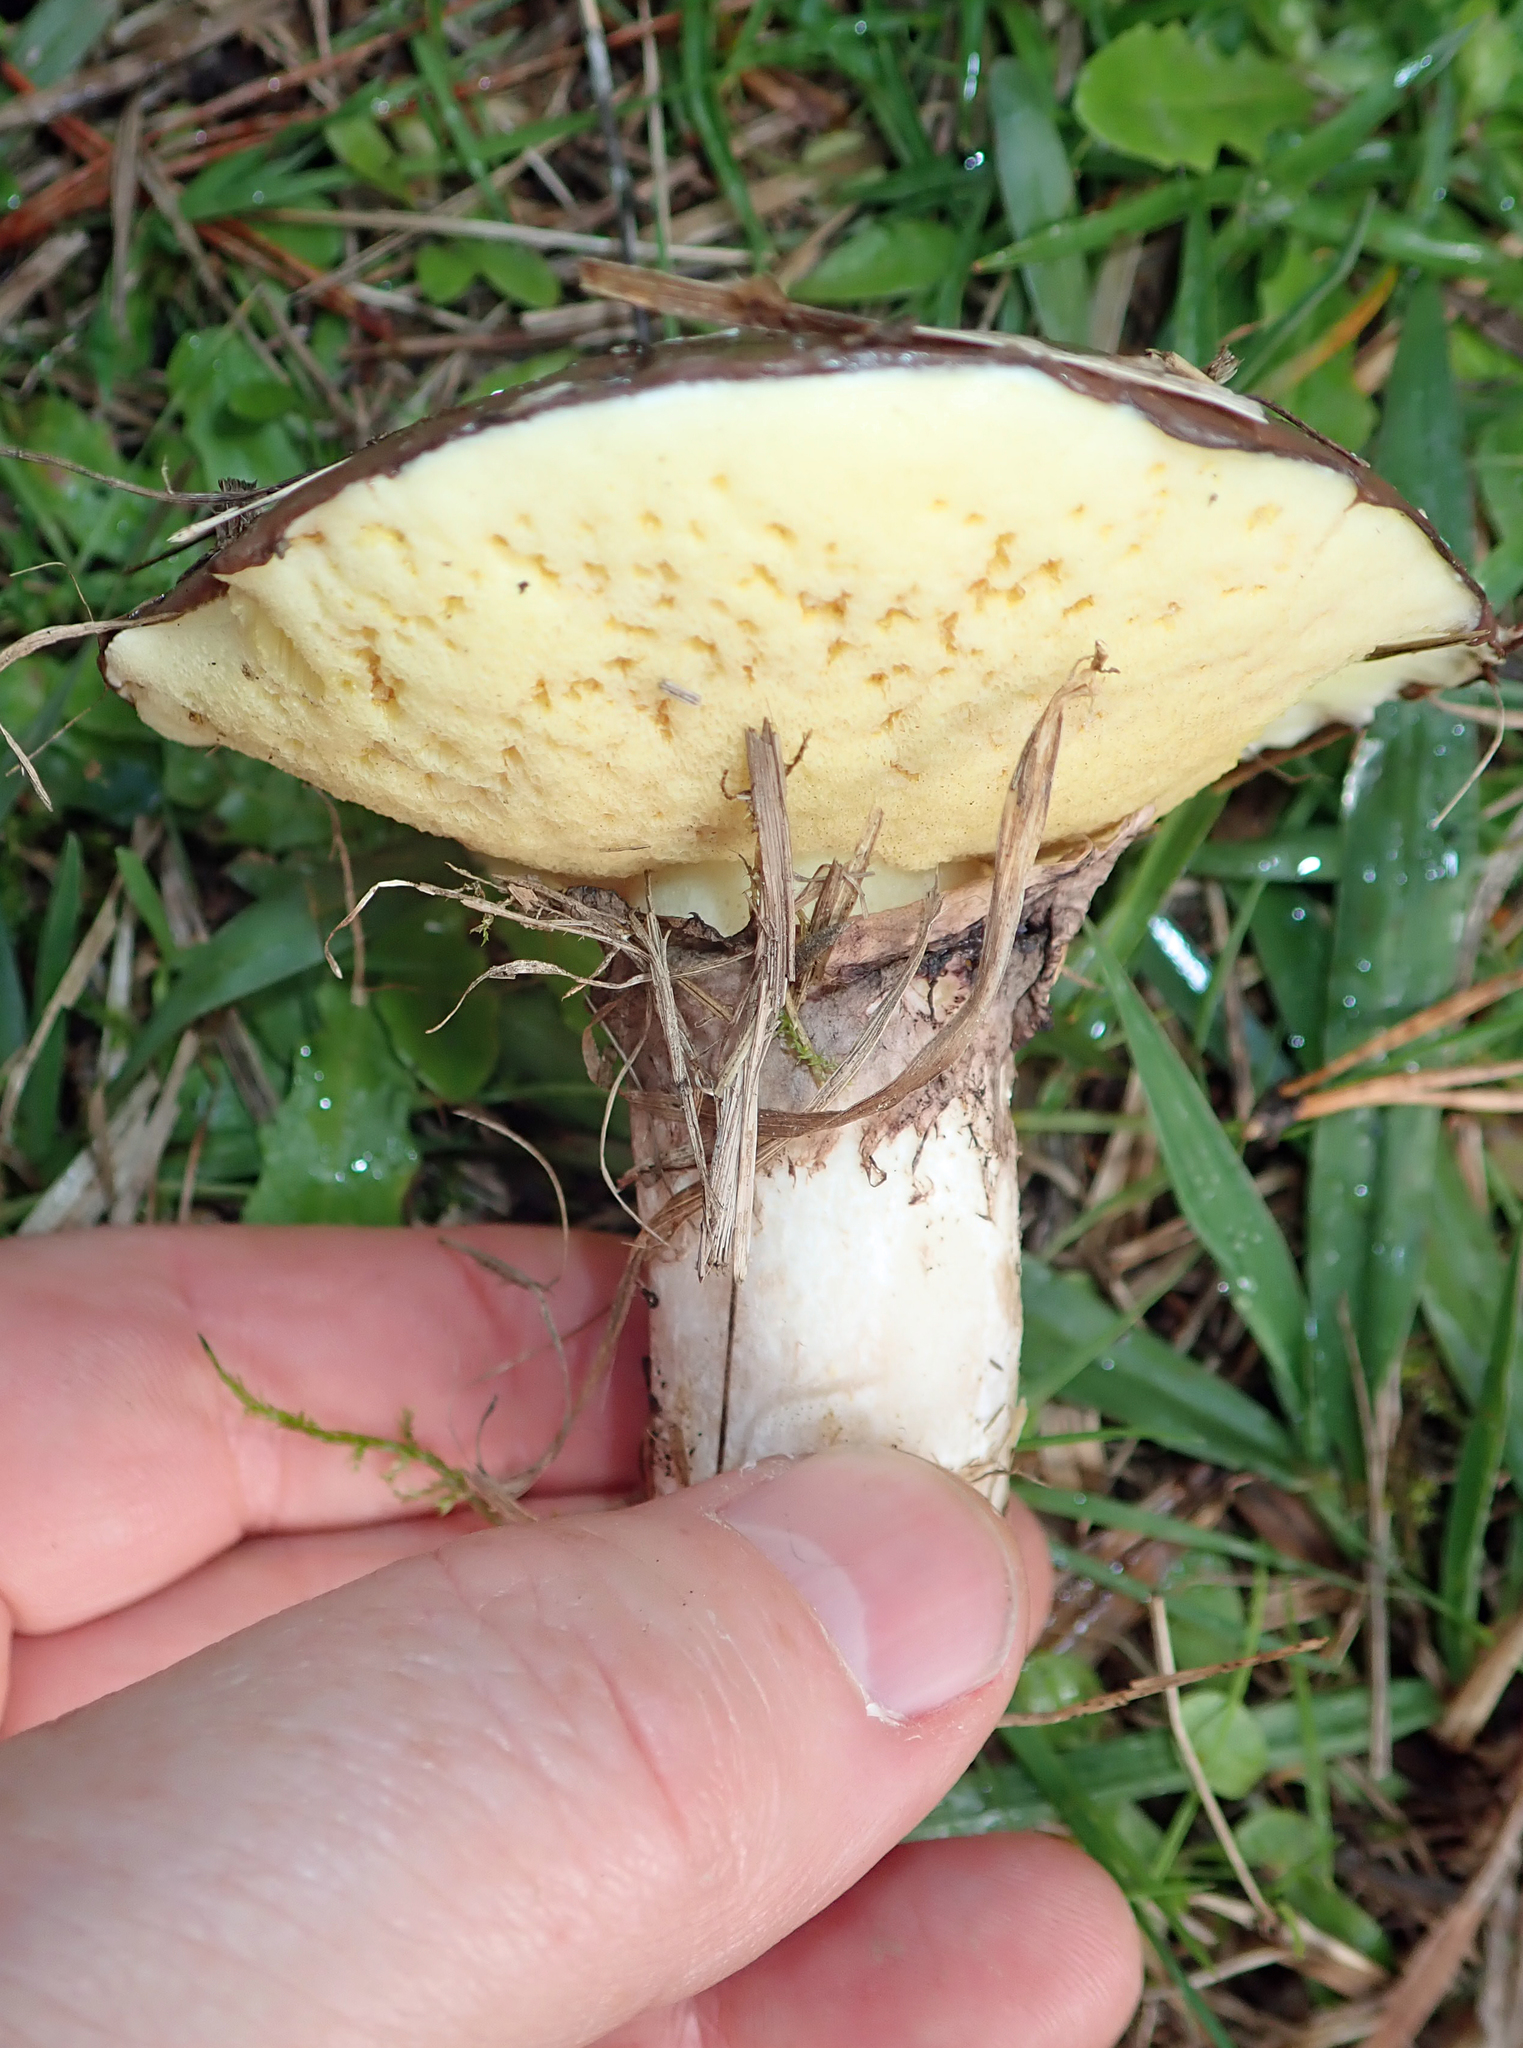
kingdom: Fungi
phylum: Basidiomycota
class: Agaricomycetes
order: Boletales
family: Suillaceae
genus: Suillus
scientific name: Suillus luteus
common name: Slippery jack
